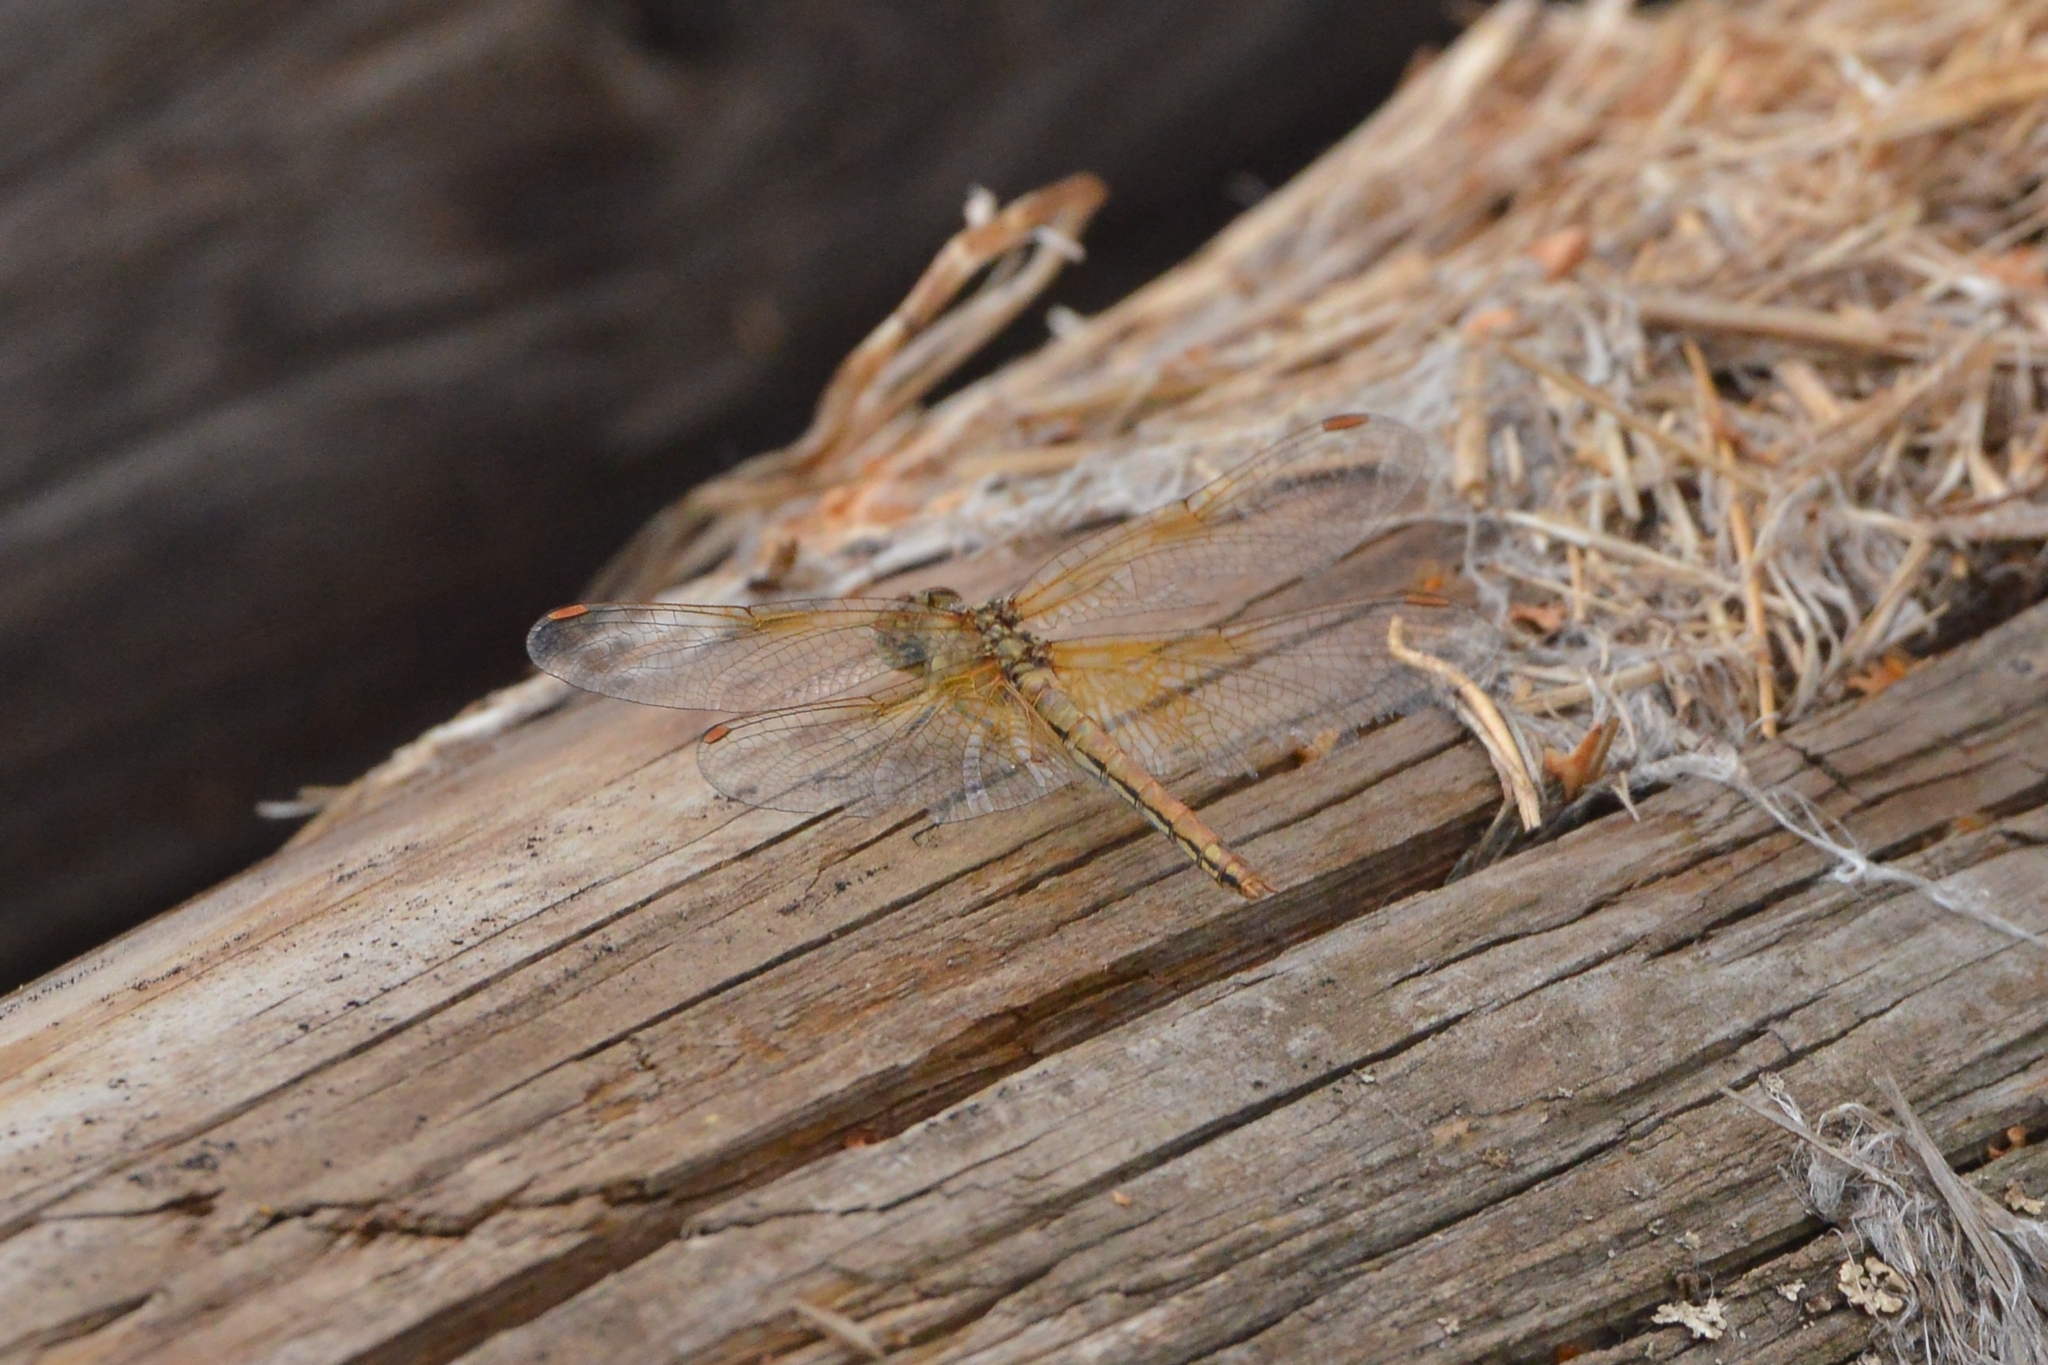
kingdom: Animalia
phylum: Arthropoda
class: Insecta
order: Odonata
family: Libellulidae
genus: Sympetrum
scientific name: Sympetrum flaveolum
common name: Yellow-winged darter
